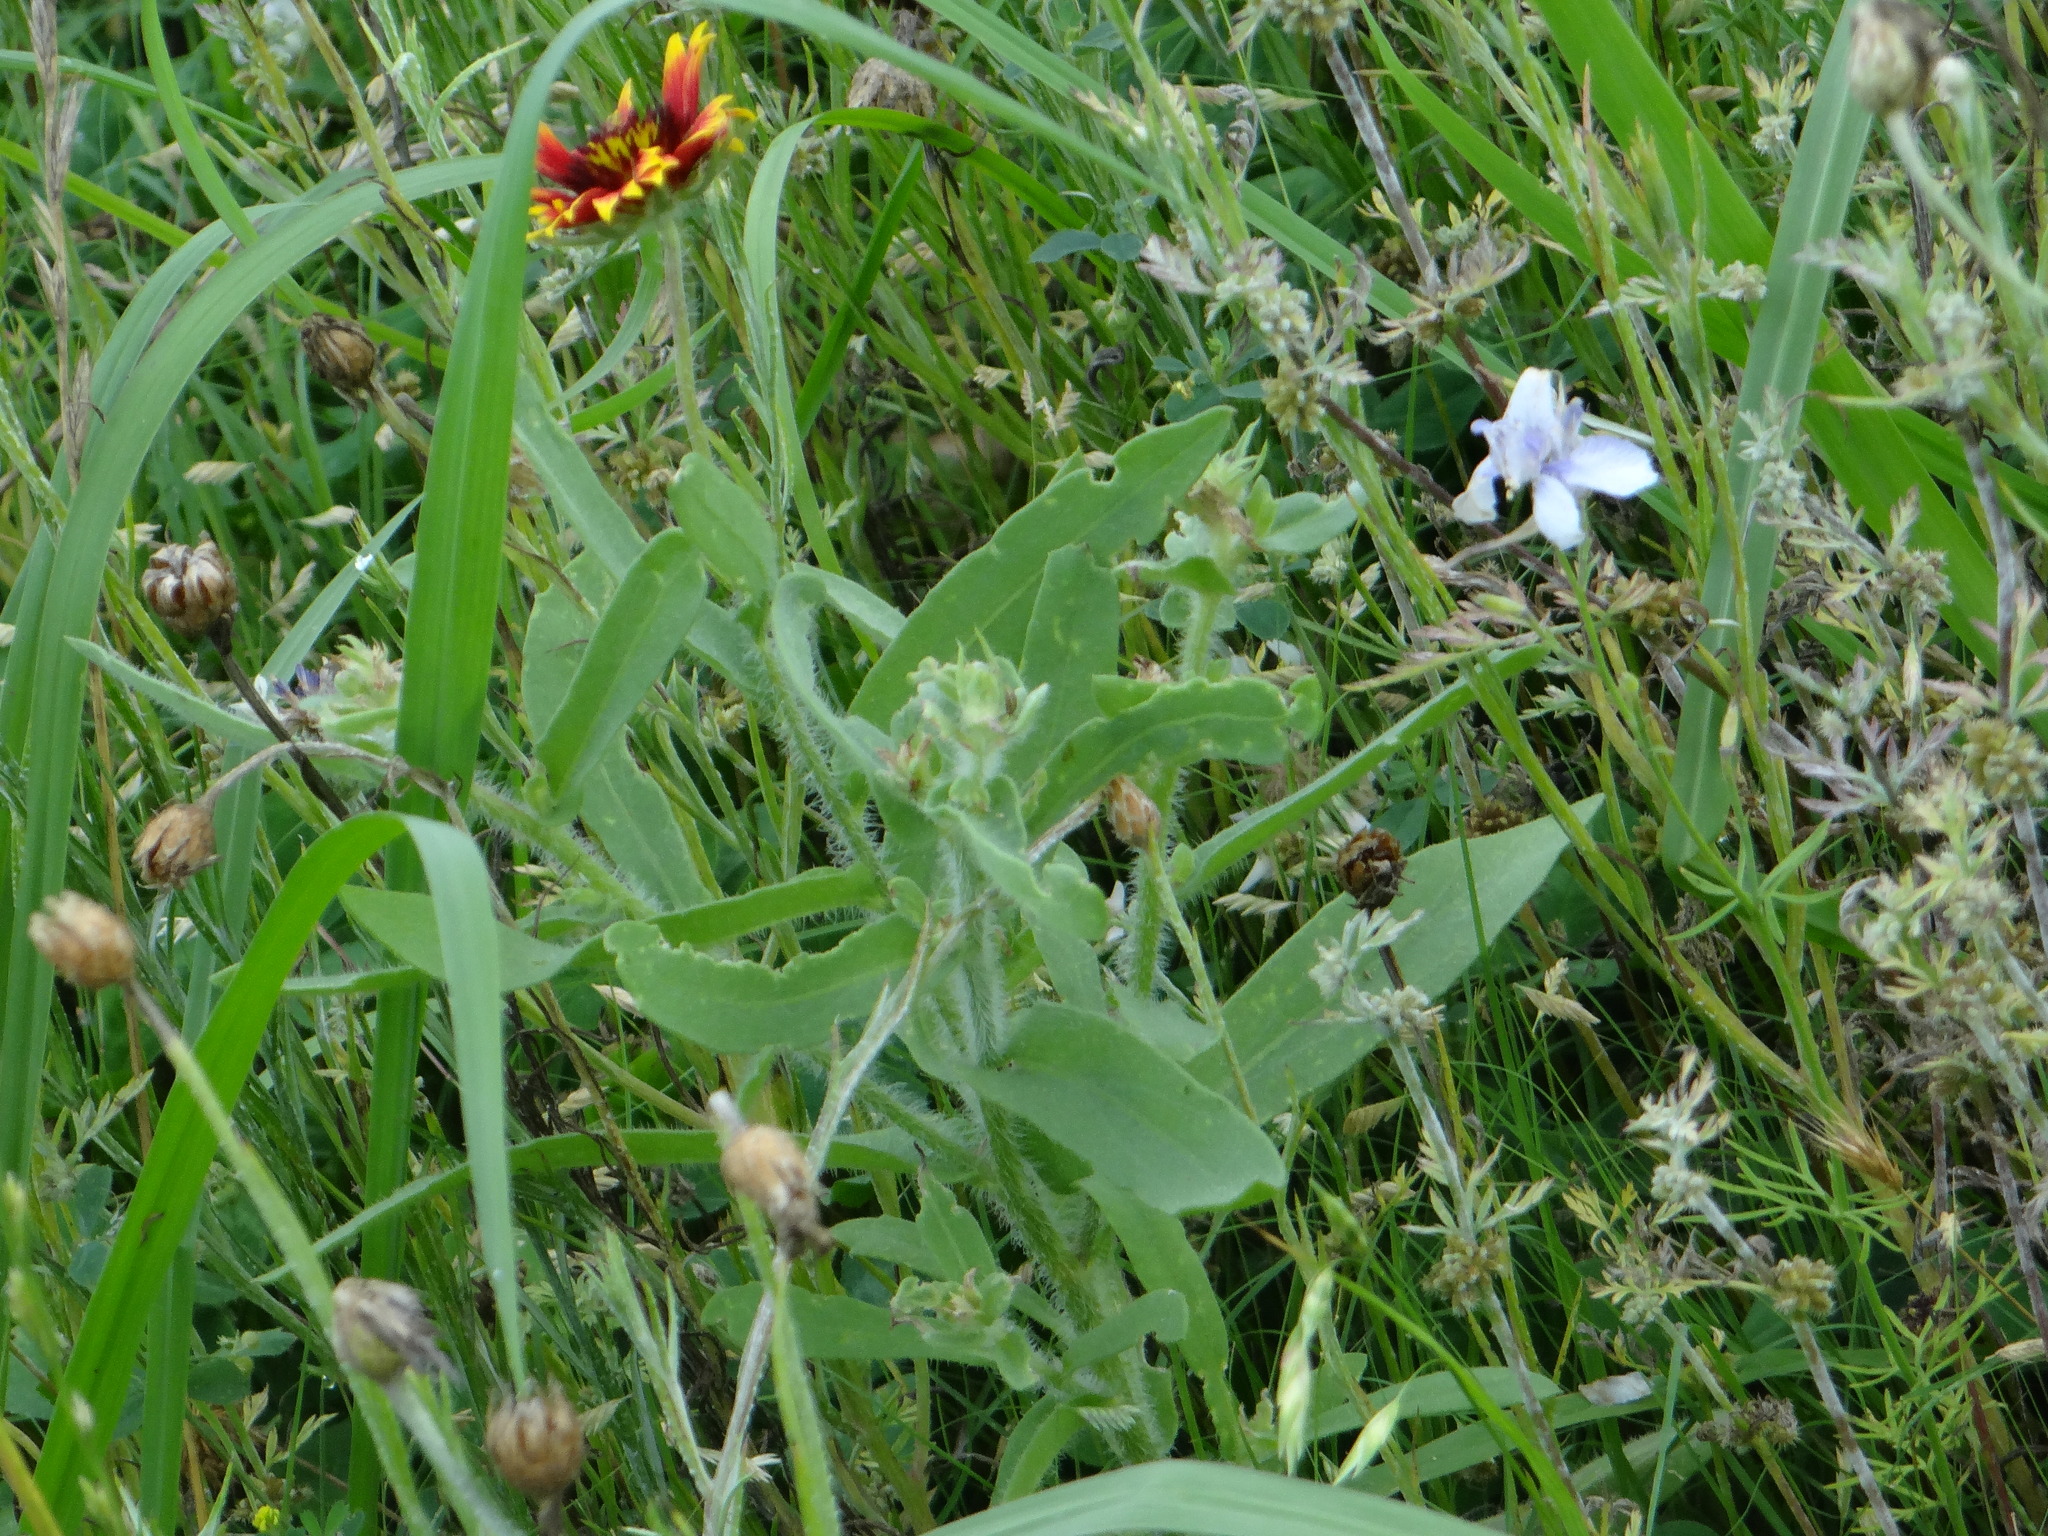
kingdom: Plantae
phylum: Tracheophyta
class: Magnoliopsida
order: Asterales
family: Asteraceae
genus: Gaillardia
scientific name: Gaillardia pulchella
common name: Firewheel
